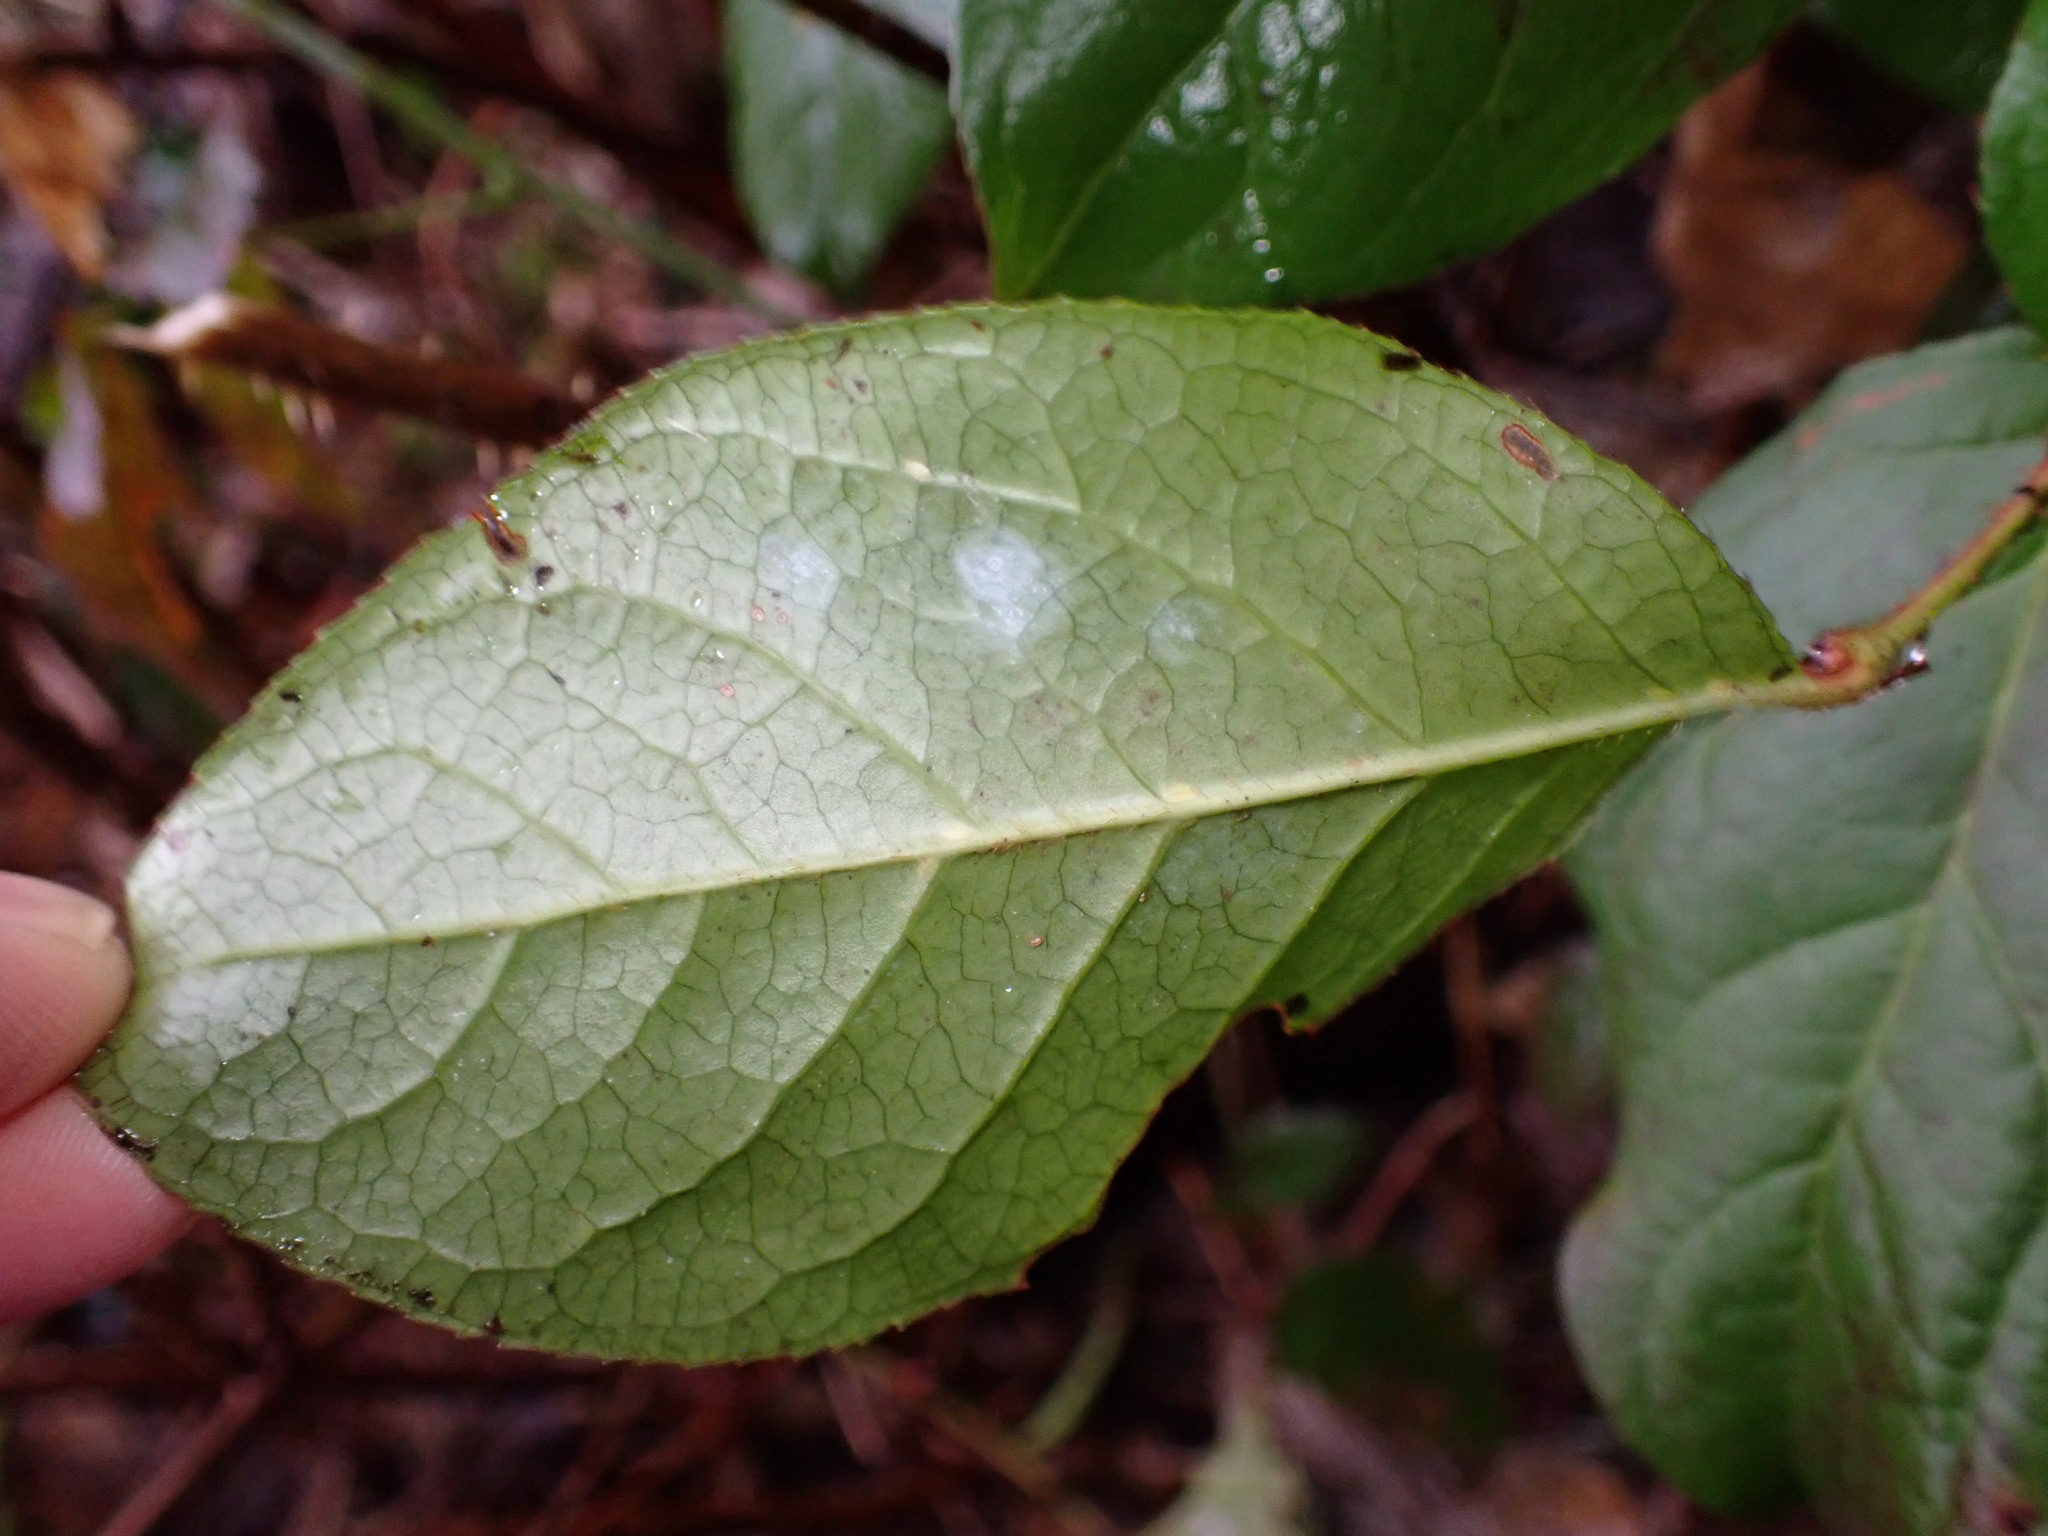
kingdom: Plantae
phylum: Tracheophyta
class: Magnoliopsida
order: Ericales
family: Ericaceae
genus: Gaultheria
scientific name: Gaultheria shallon
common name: Shallon
